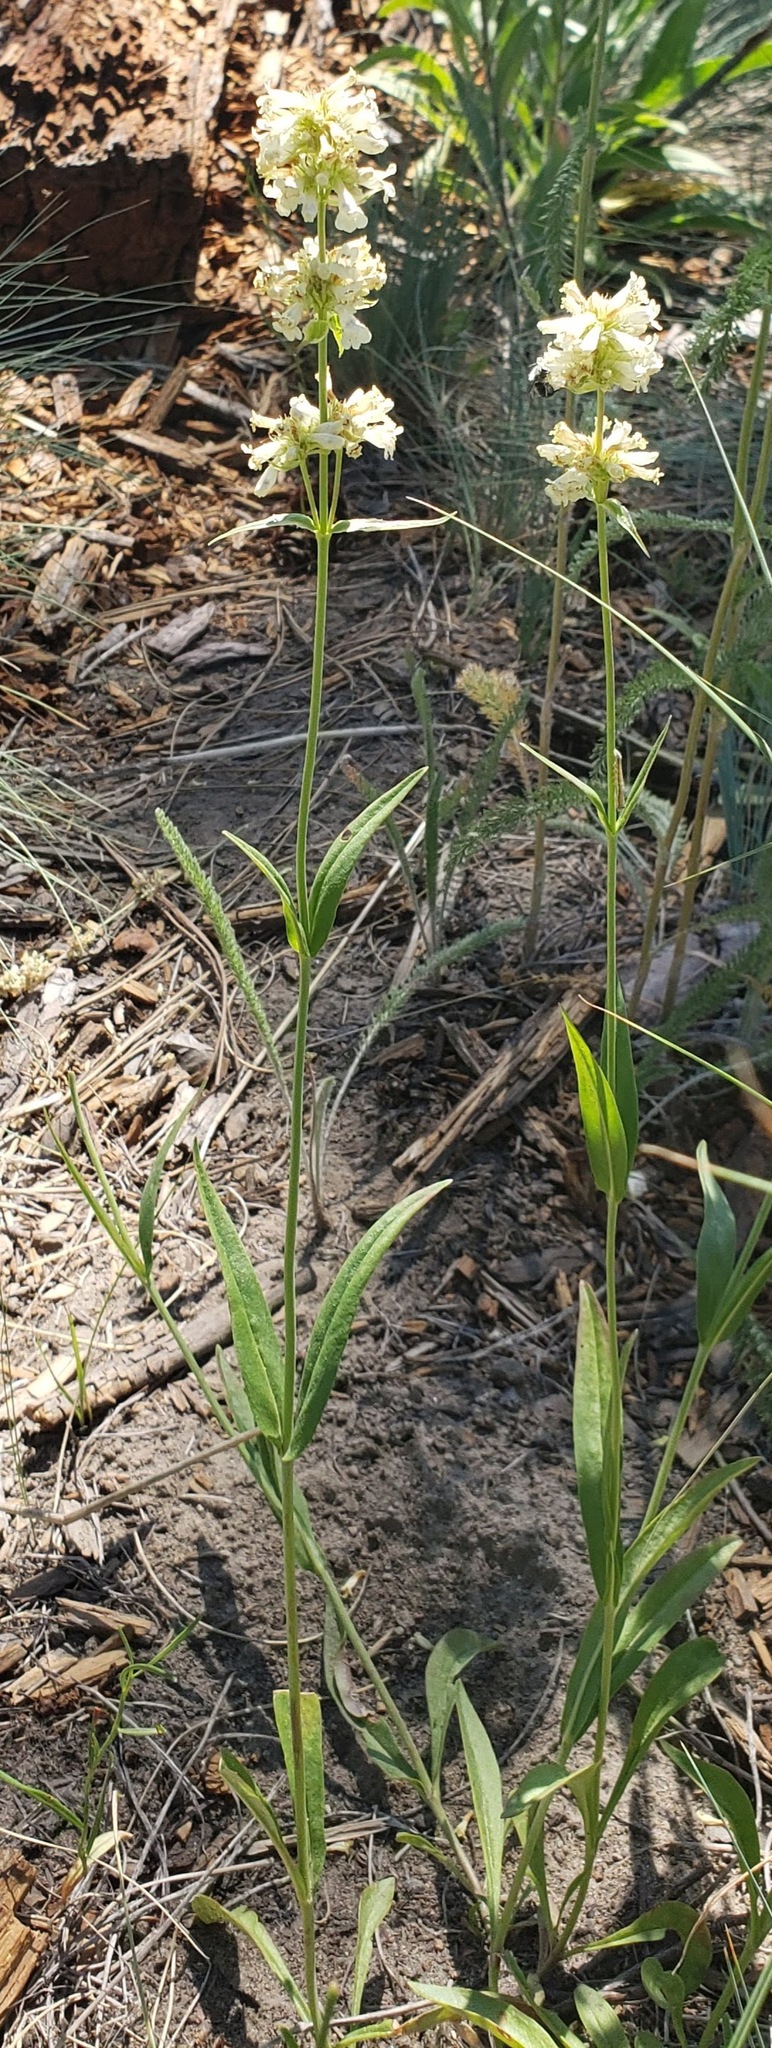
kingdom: Plantae
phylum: Tracheophyta
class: Magnoliopsida
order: Lamiales
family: Plantaginaceae
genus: Penstemon
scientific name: Penstemon confertus
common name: Lesser yellow beardtongue
